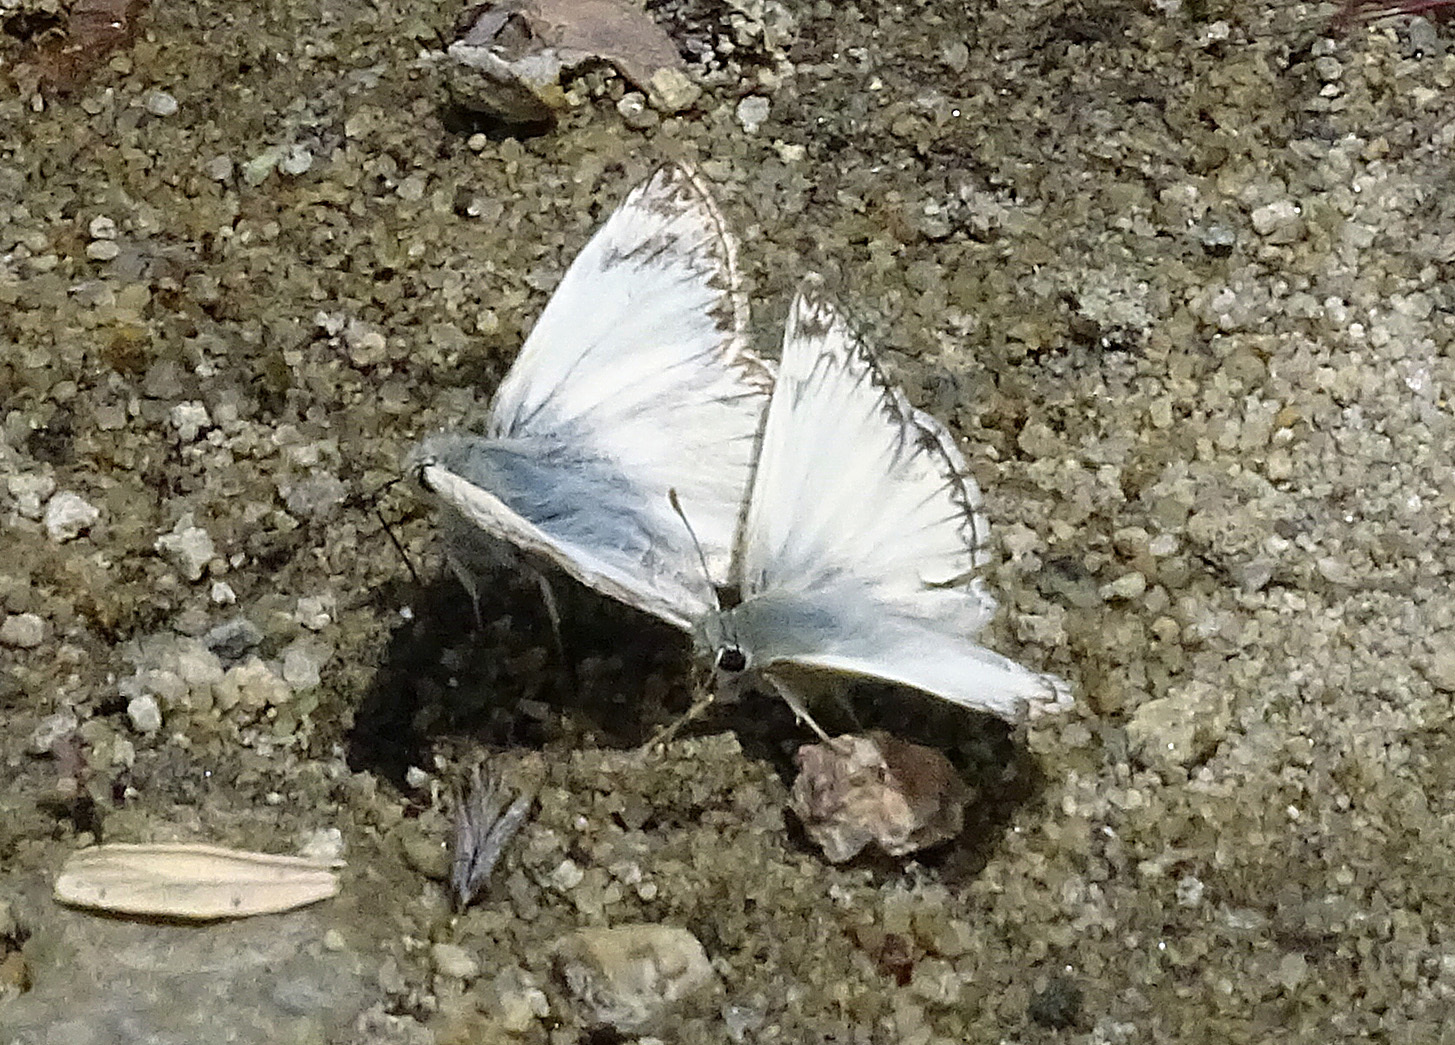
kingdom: Animalia
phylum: Arthropoda
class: Insecta
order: Lepidoptera
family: Hesperiidae
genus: Heliopetes
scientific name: Heliopetes ericetorum
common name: Northern white-skipper
